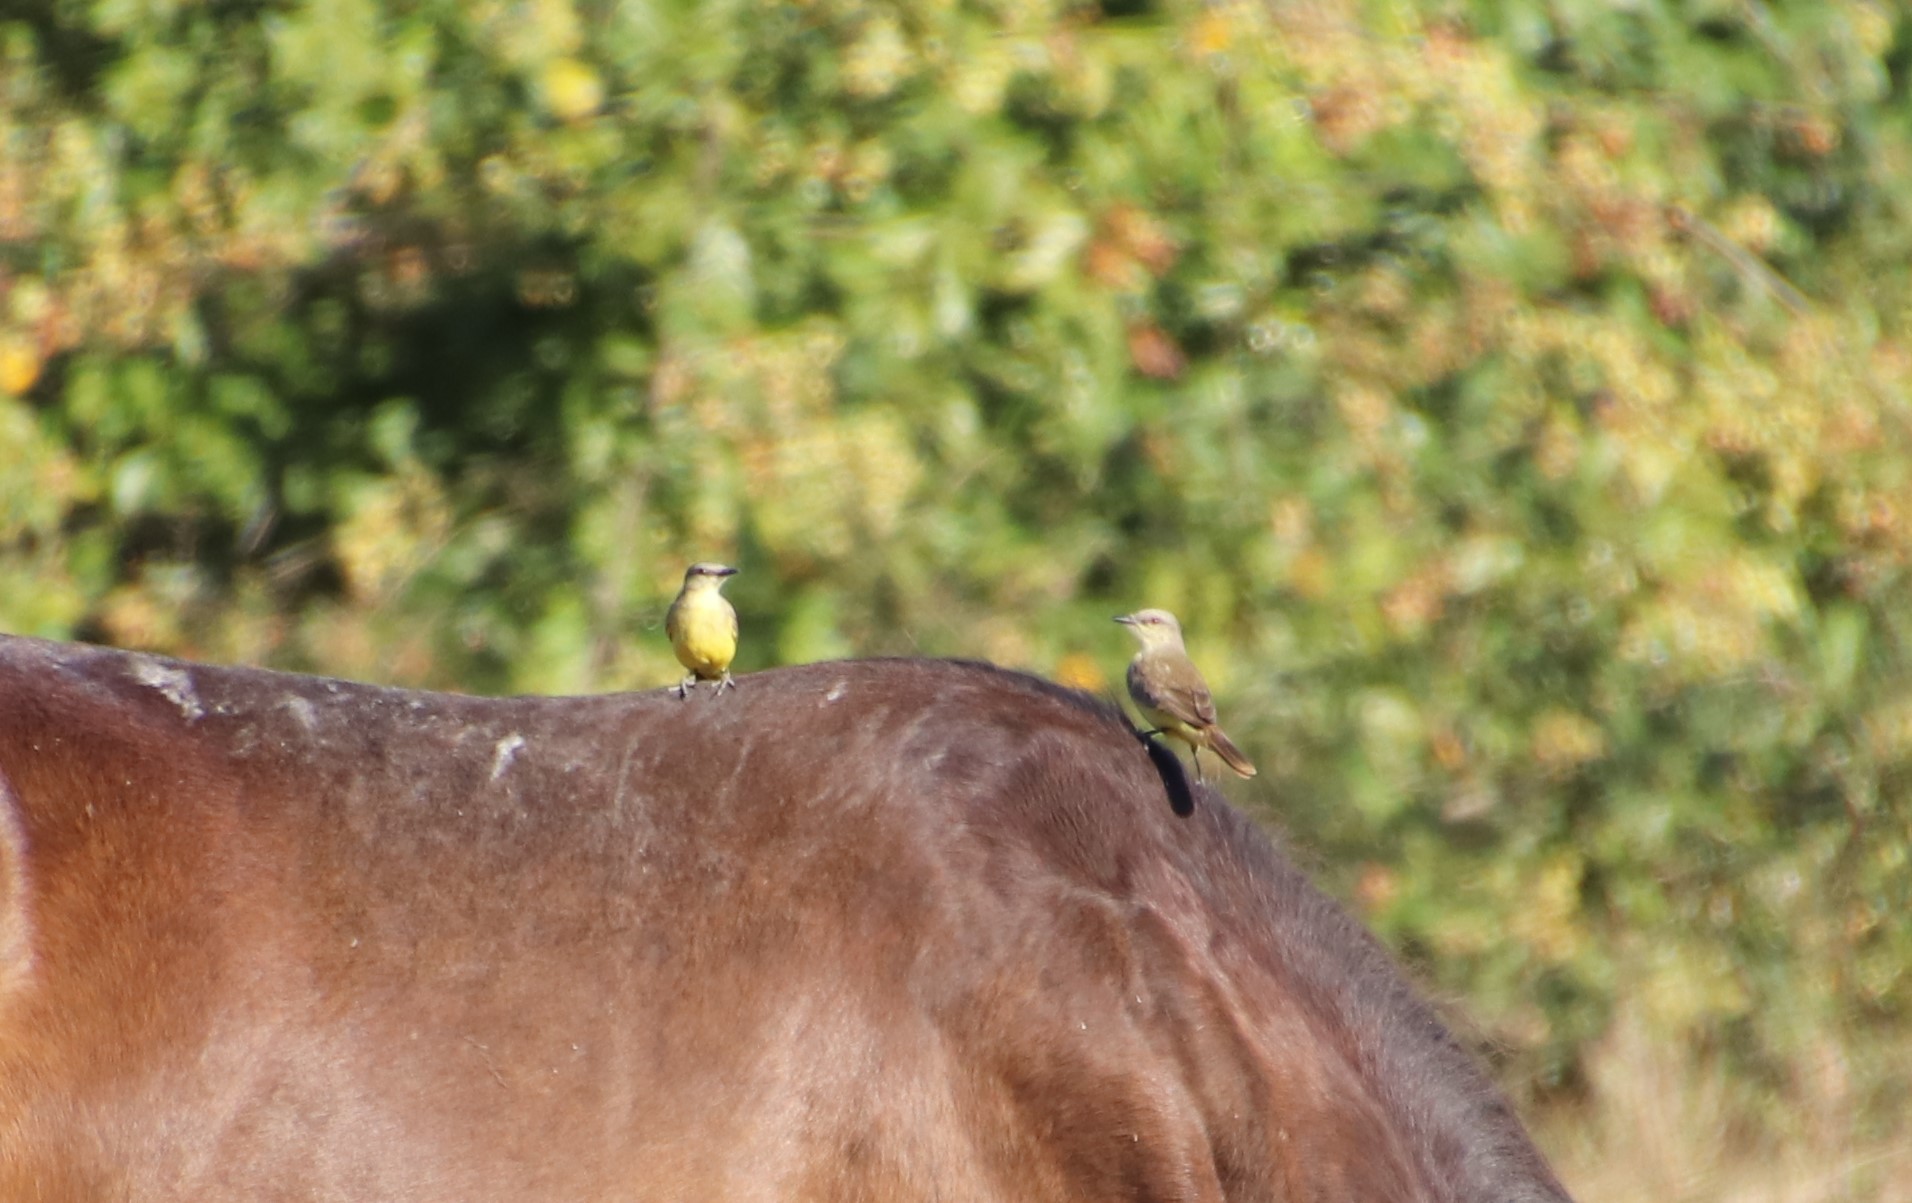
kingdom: Animalia
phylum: Chordata
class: Aves
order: Passeriformes
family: Tyrannidae
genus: Machetornis
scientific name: Machetornis rixosa
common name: Cattle tyrant
